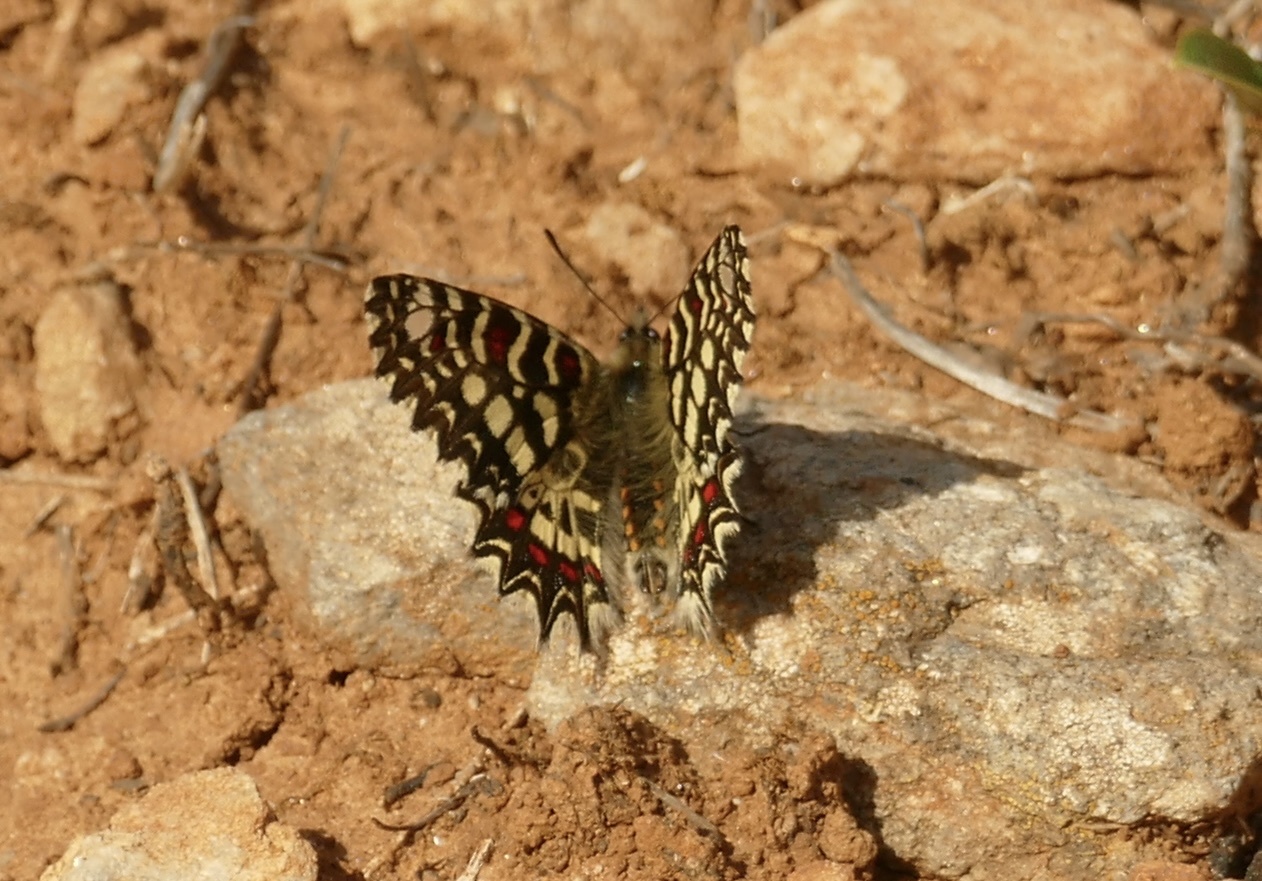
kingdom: Animalia
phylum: Arthropoda
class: Insecta
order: Lepidoptera
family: Papilionidae
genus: Zerynthia
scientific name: Zerynthia rumina
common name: Spanish festoon
